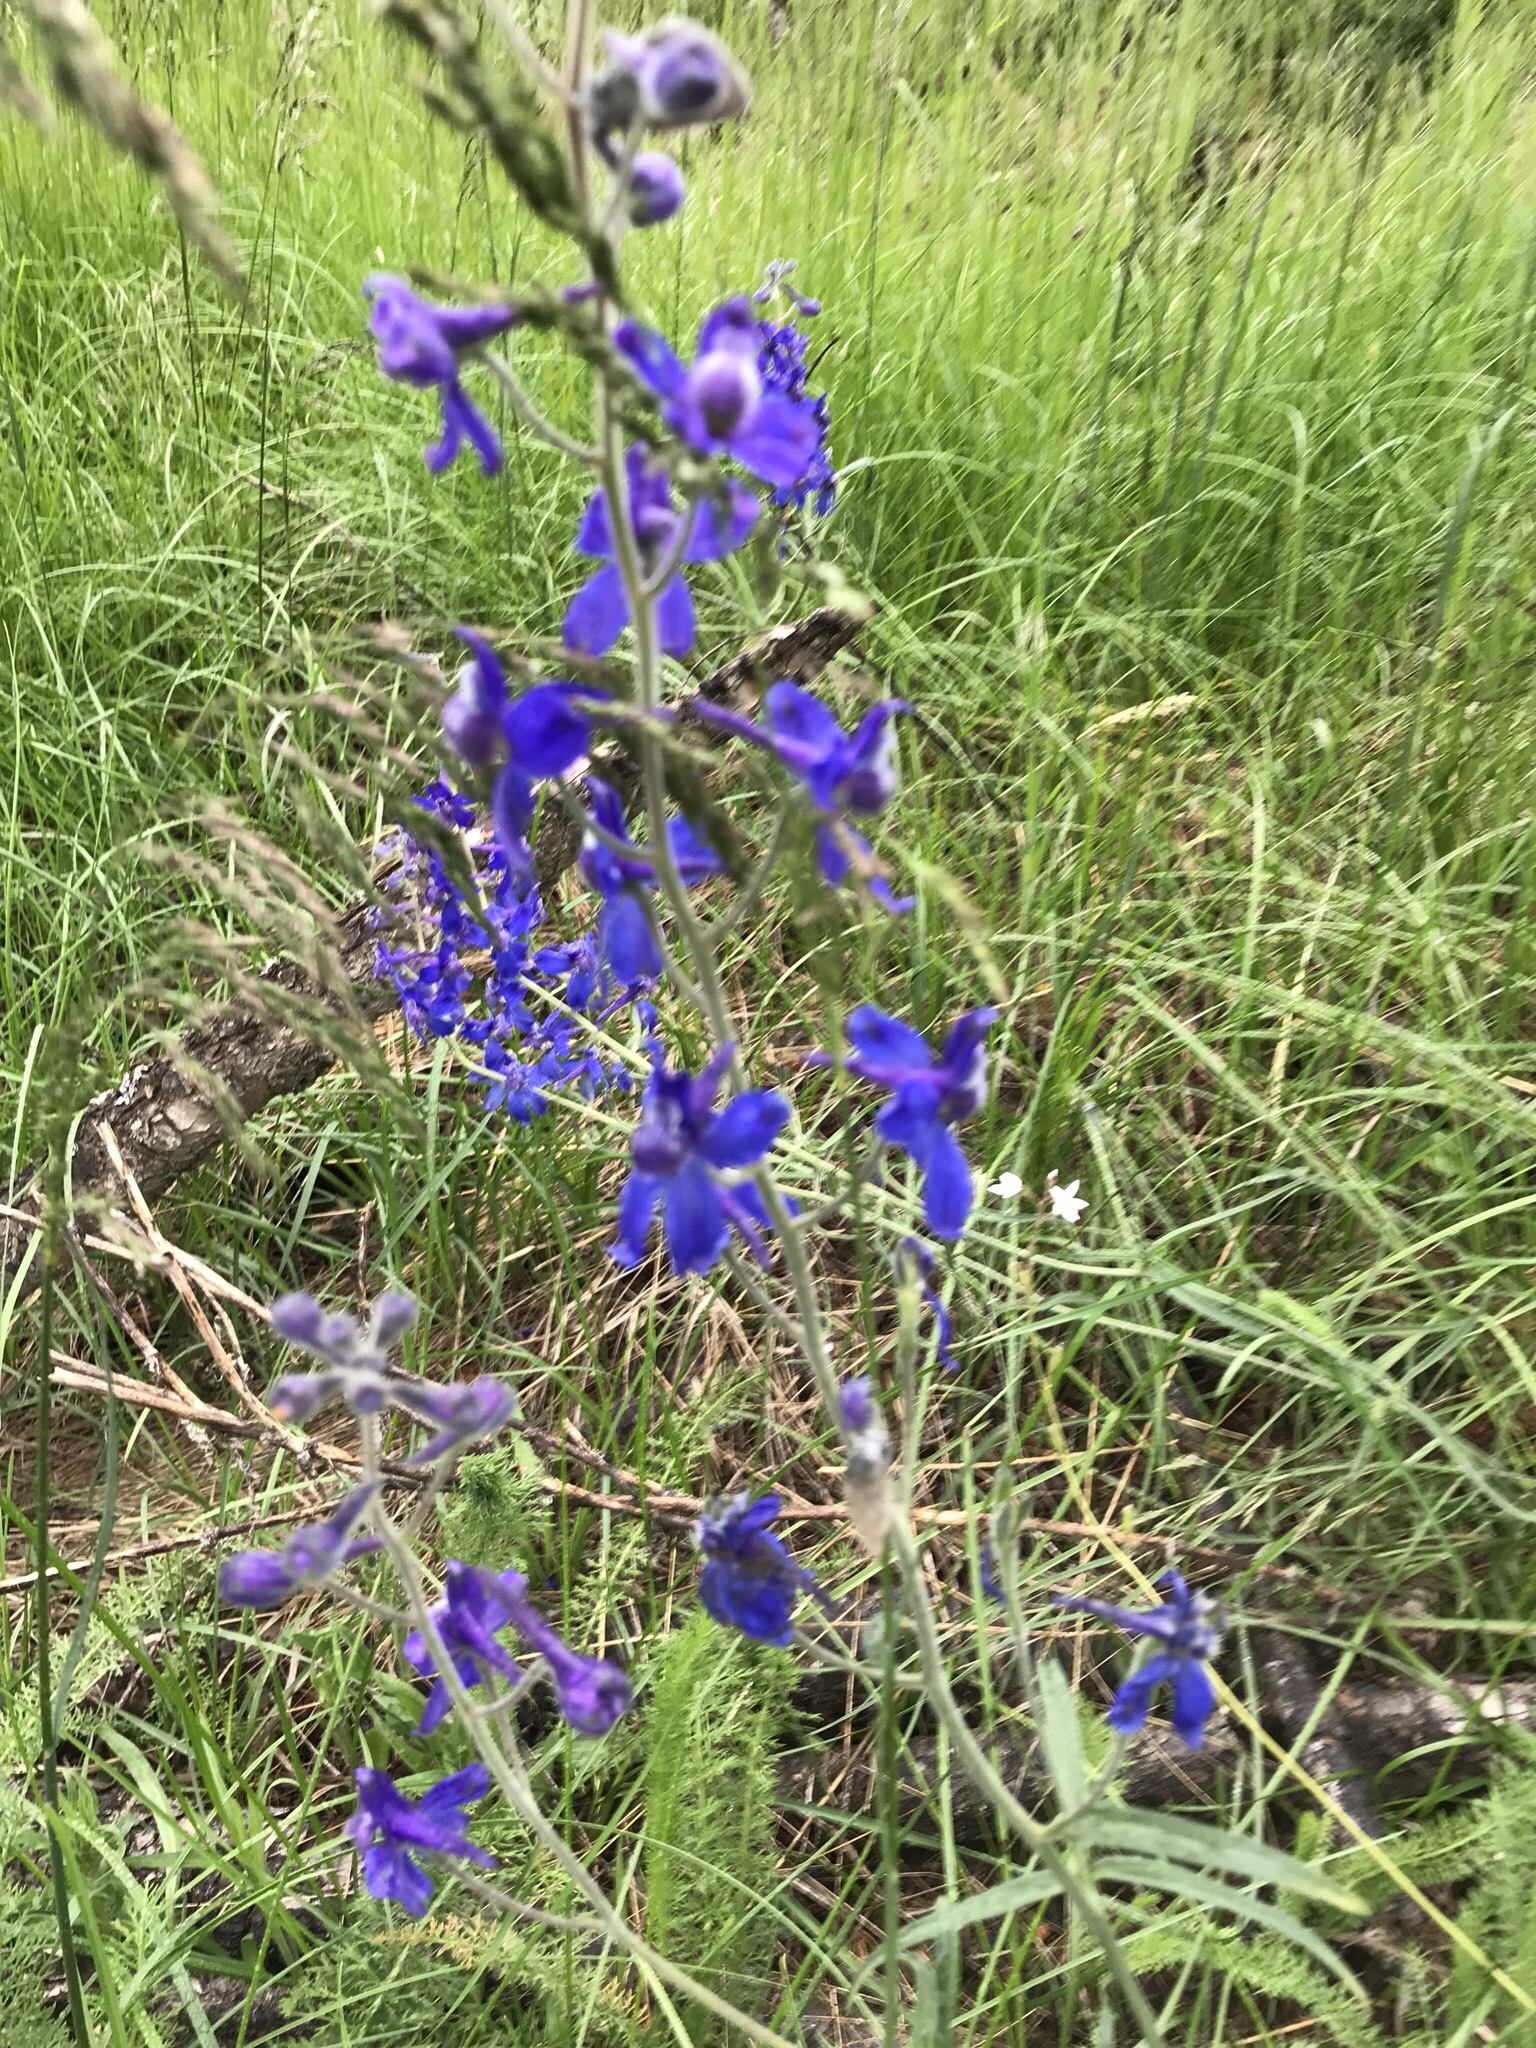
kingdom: Plantae
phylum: Tracheophyta
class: Magnoliopsida
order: Ranunculales
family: Ranunculaceae
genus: Delphinium
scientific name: Delphinium nuttallianum
